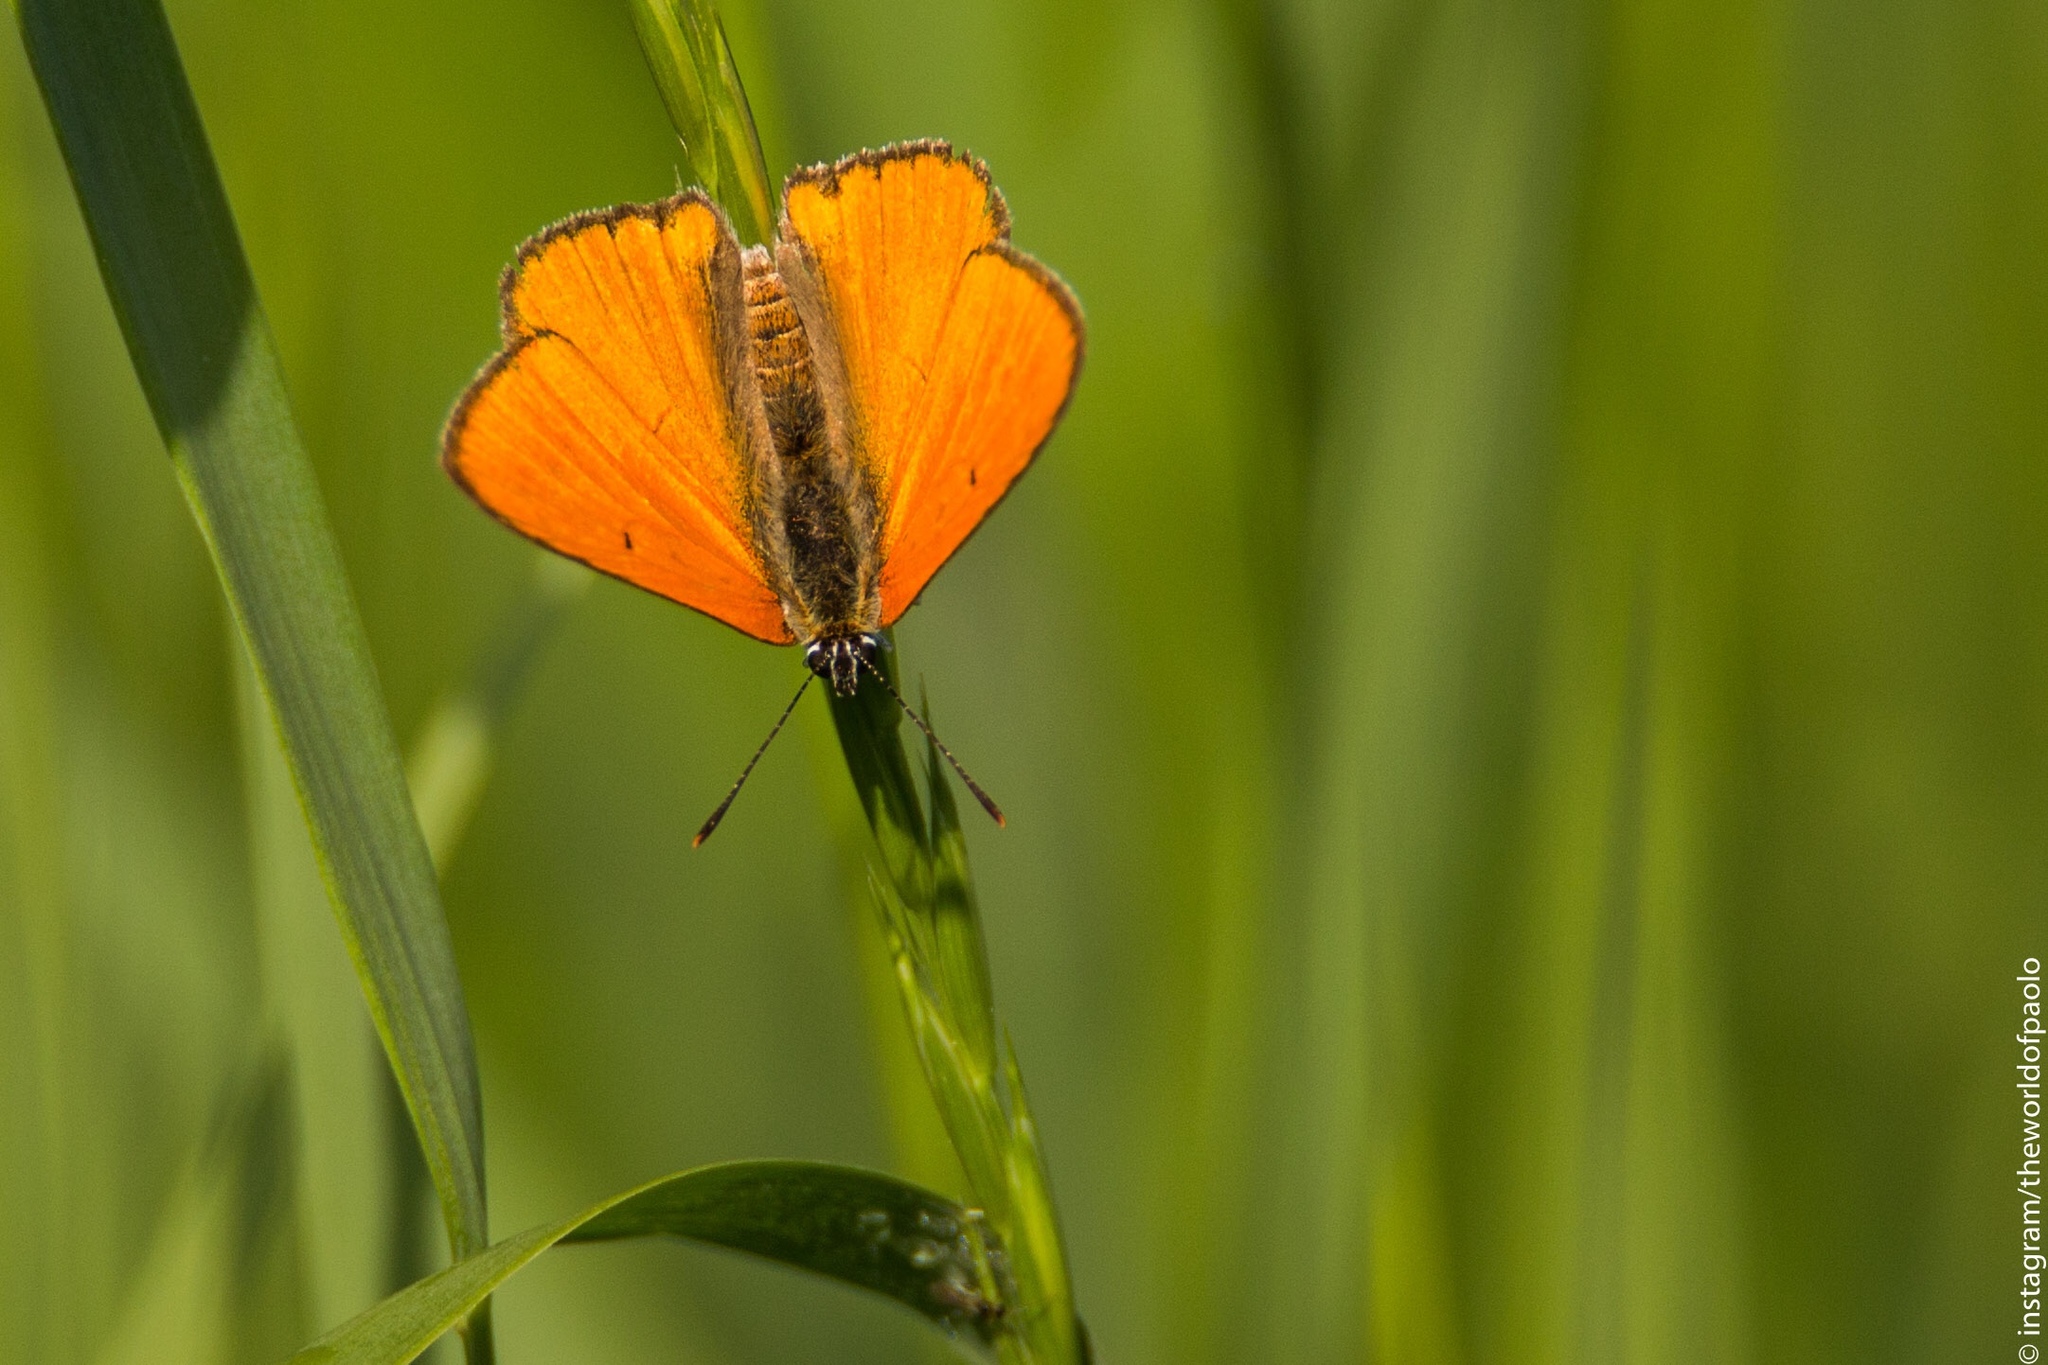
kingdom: Animalia
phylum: Arthropoda
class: Insecta
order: Lepidoptera
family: Lycaenidae
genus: Lycaena
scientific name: Lycaena dispar
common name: Large copper
